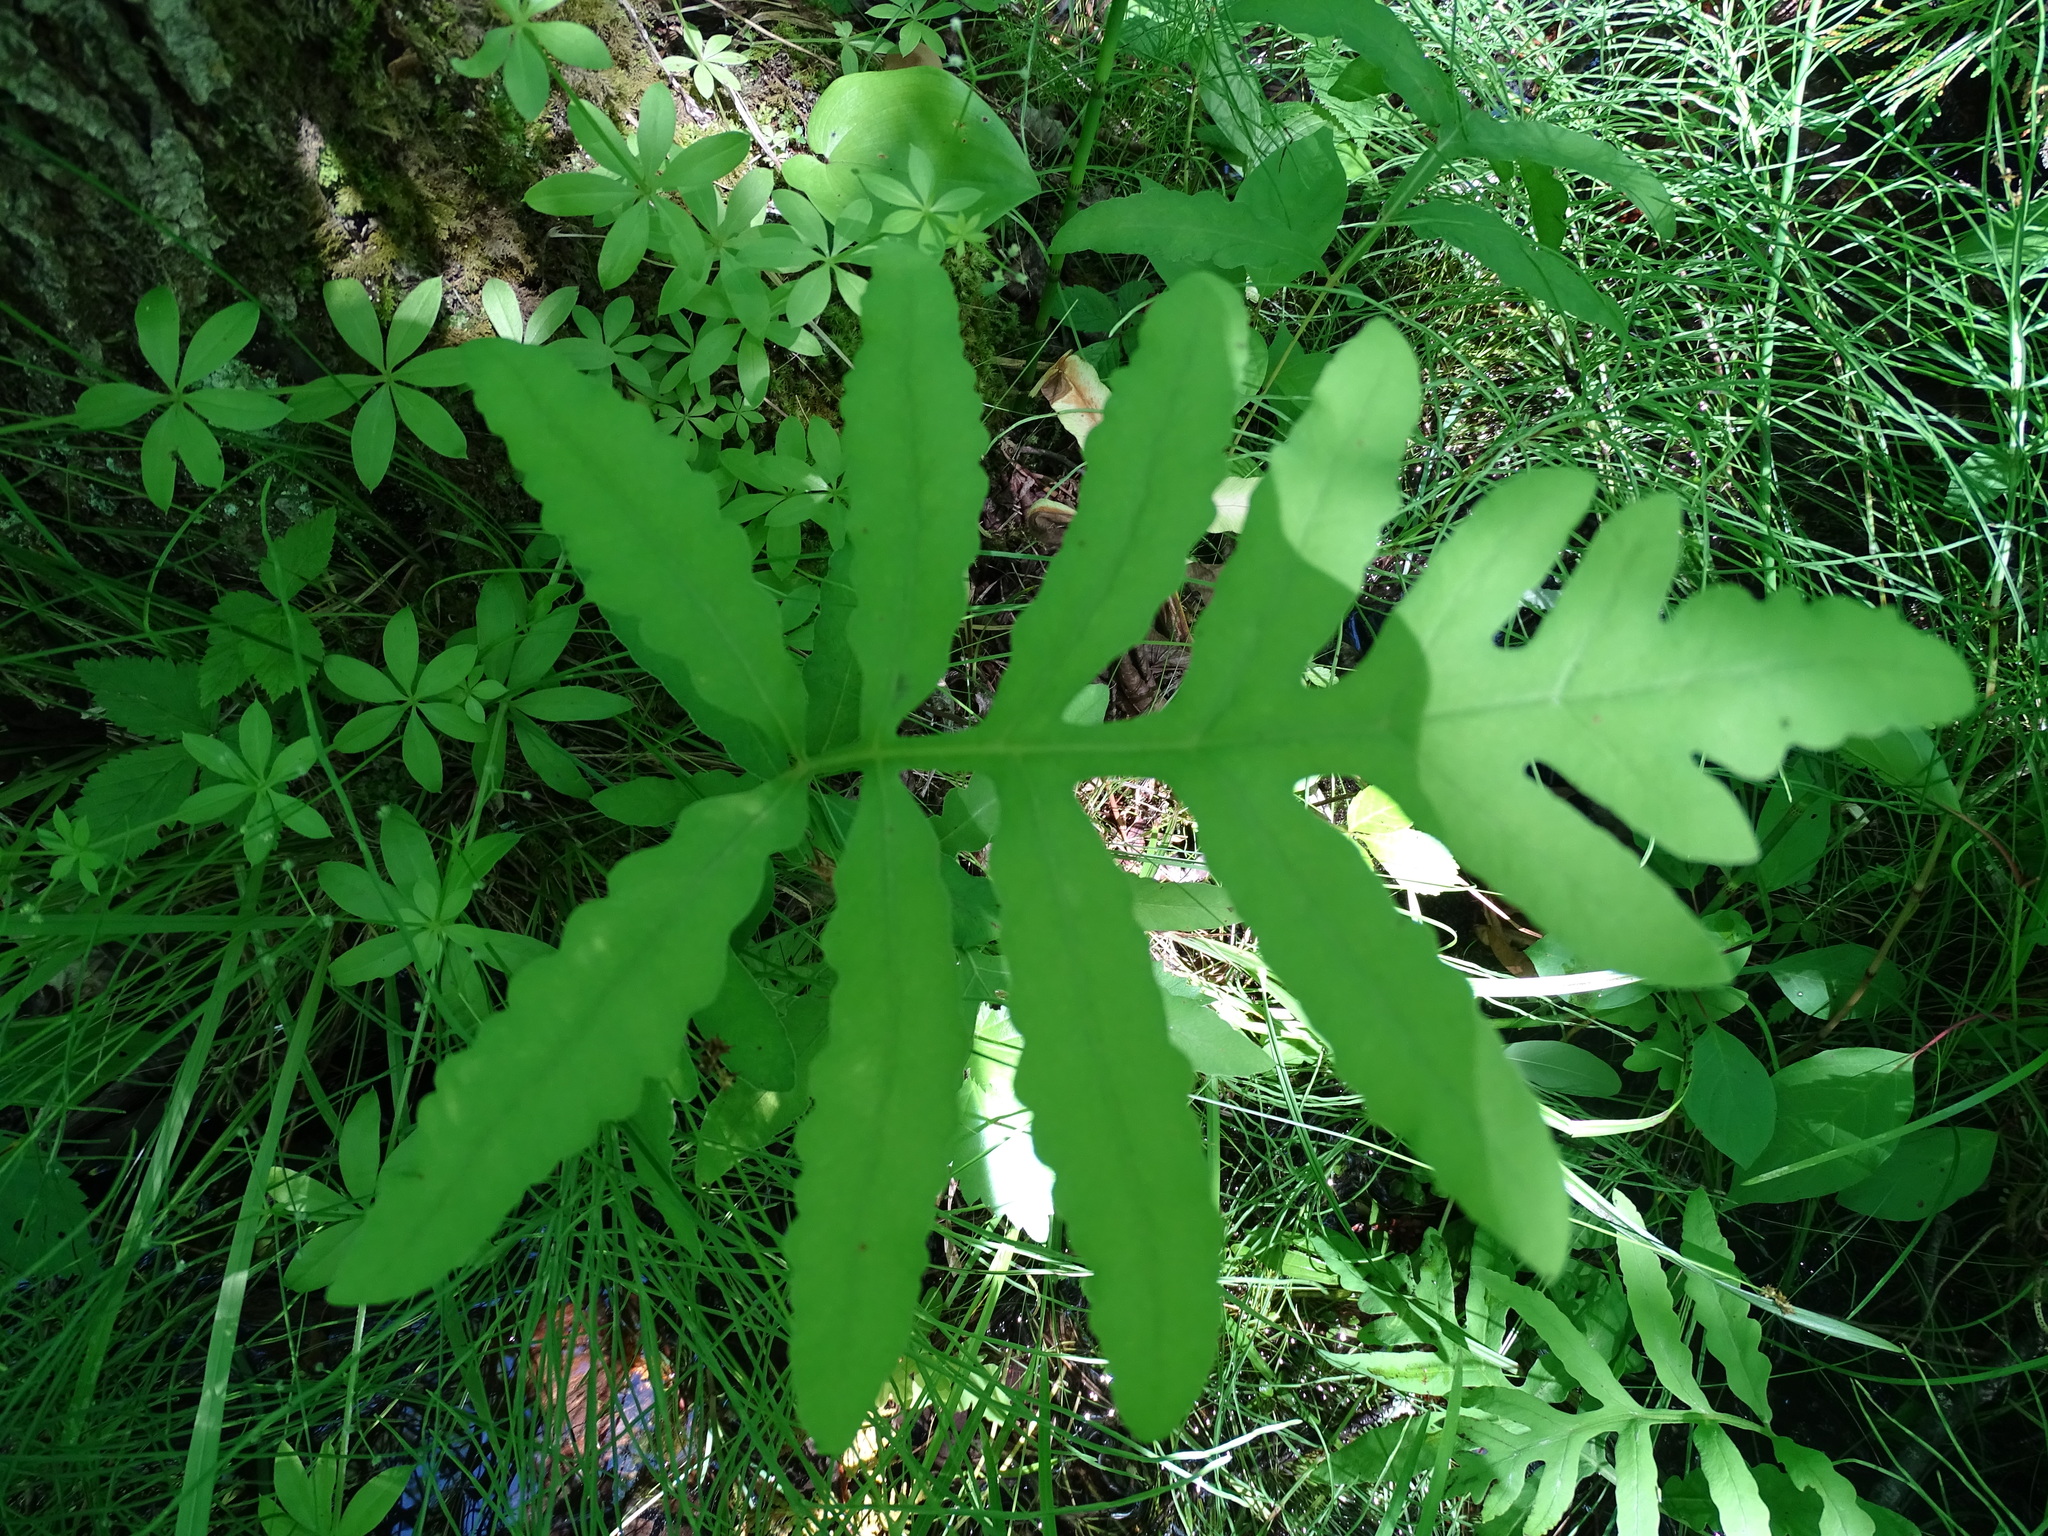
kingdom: Plantae
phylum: Tracheophyta
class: Polypodiopsida
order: Polypodiales
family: Onocleaceae
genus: Onoclea
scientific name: Onoclea sensibilis
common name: Sensitive fern
